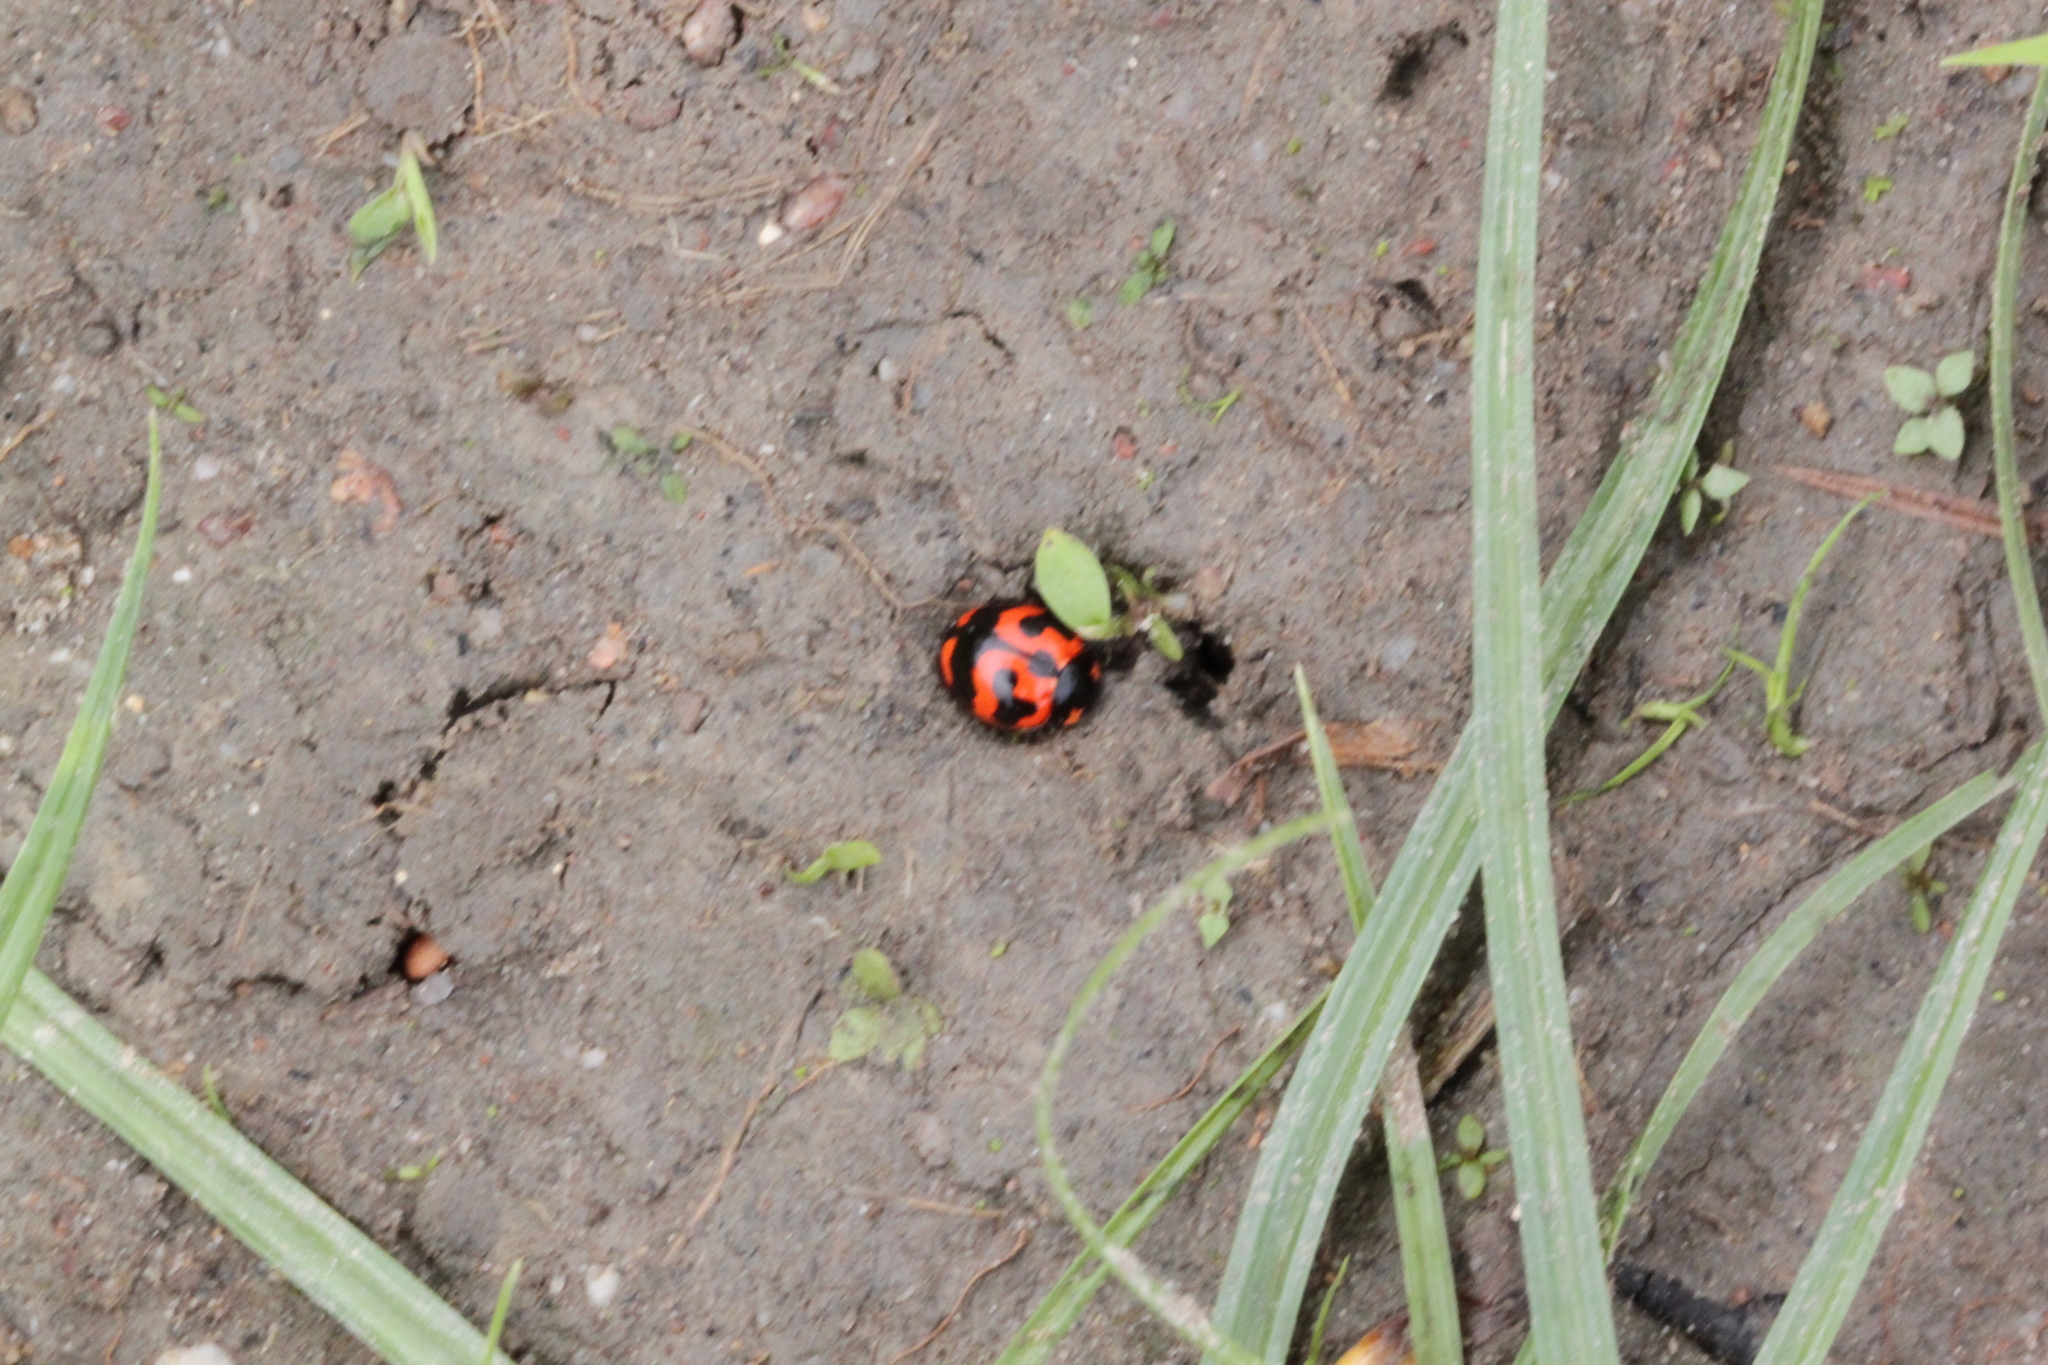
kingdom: Animalia
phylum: Arthropoda
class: Insecta
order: Coleoptera
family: Coccinellidae
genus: Coccinella
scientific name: Coccinella transversalis
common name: Transverse lady beetle
